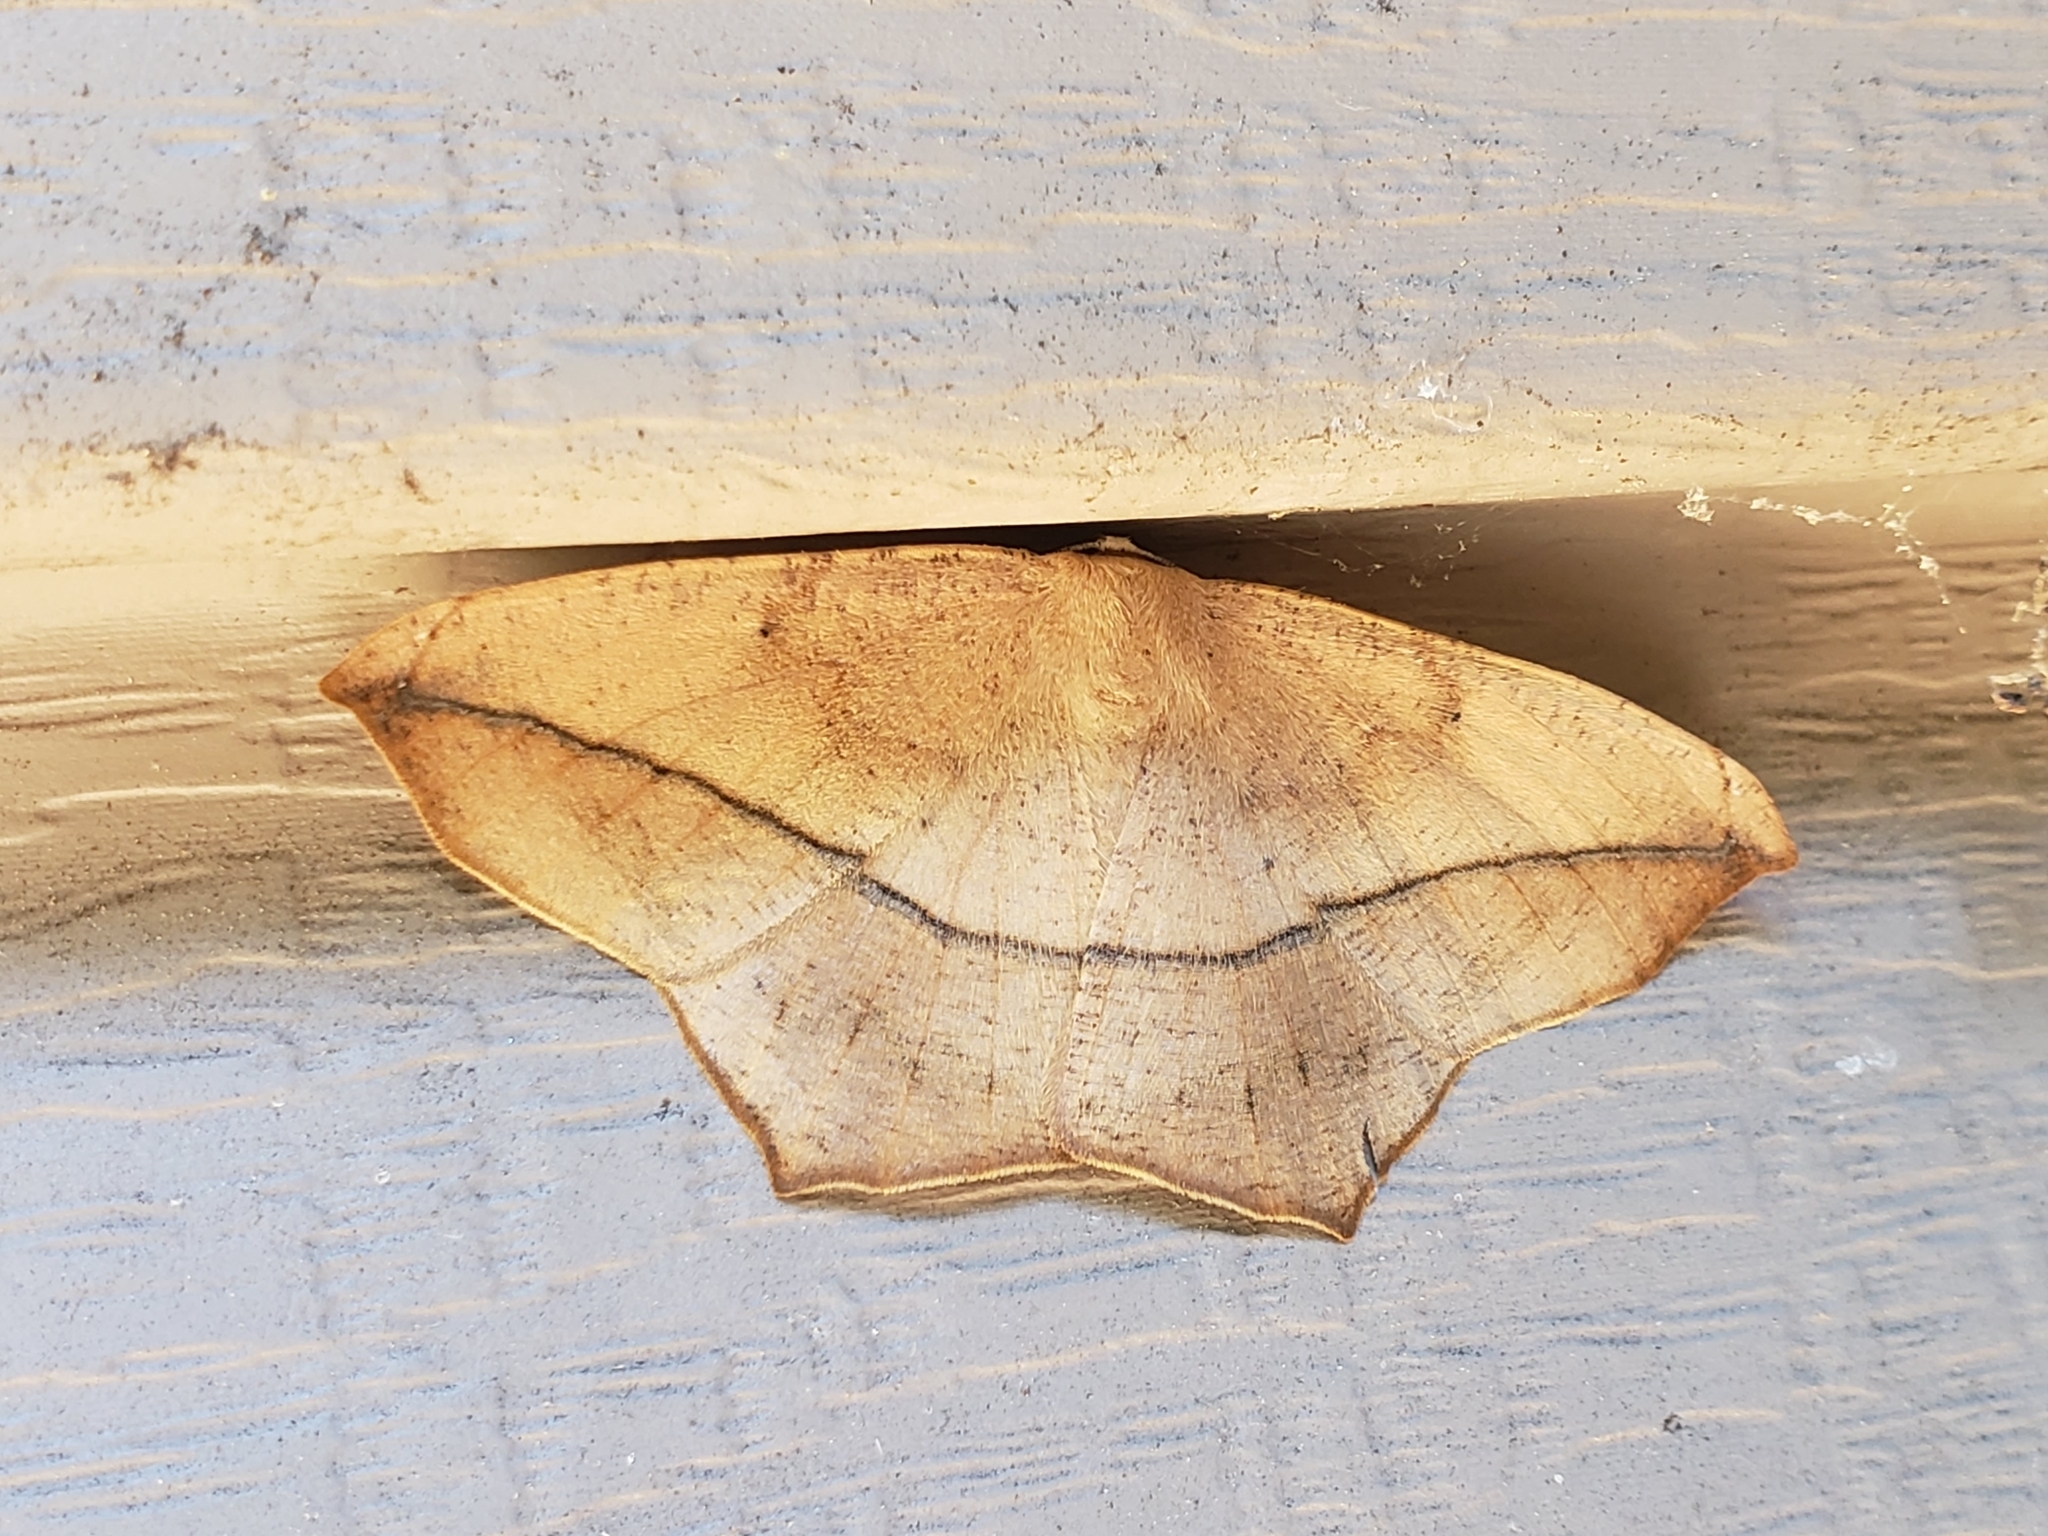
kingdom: Animalia
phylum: Arthropoda
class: Insecta
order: Lepidoptera
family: Geometridae
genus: Prochoerodes
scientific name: Prochoerodes lineola
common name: Large maple spanworm
